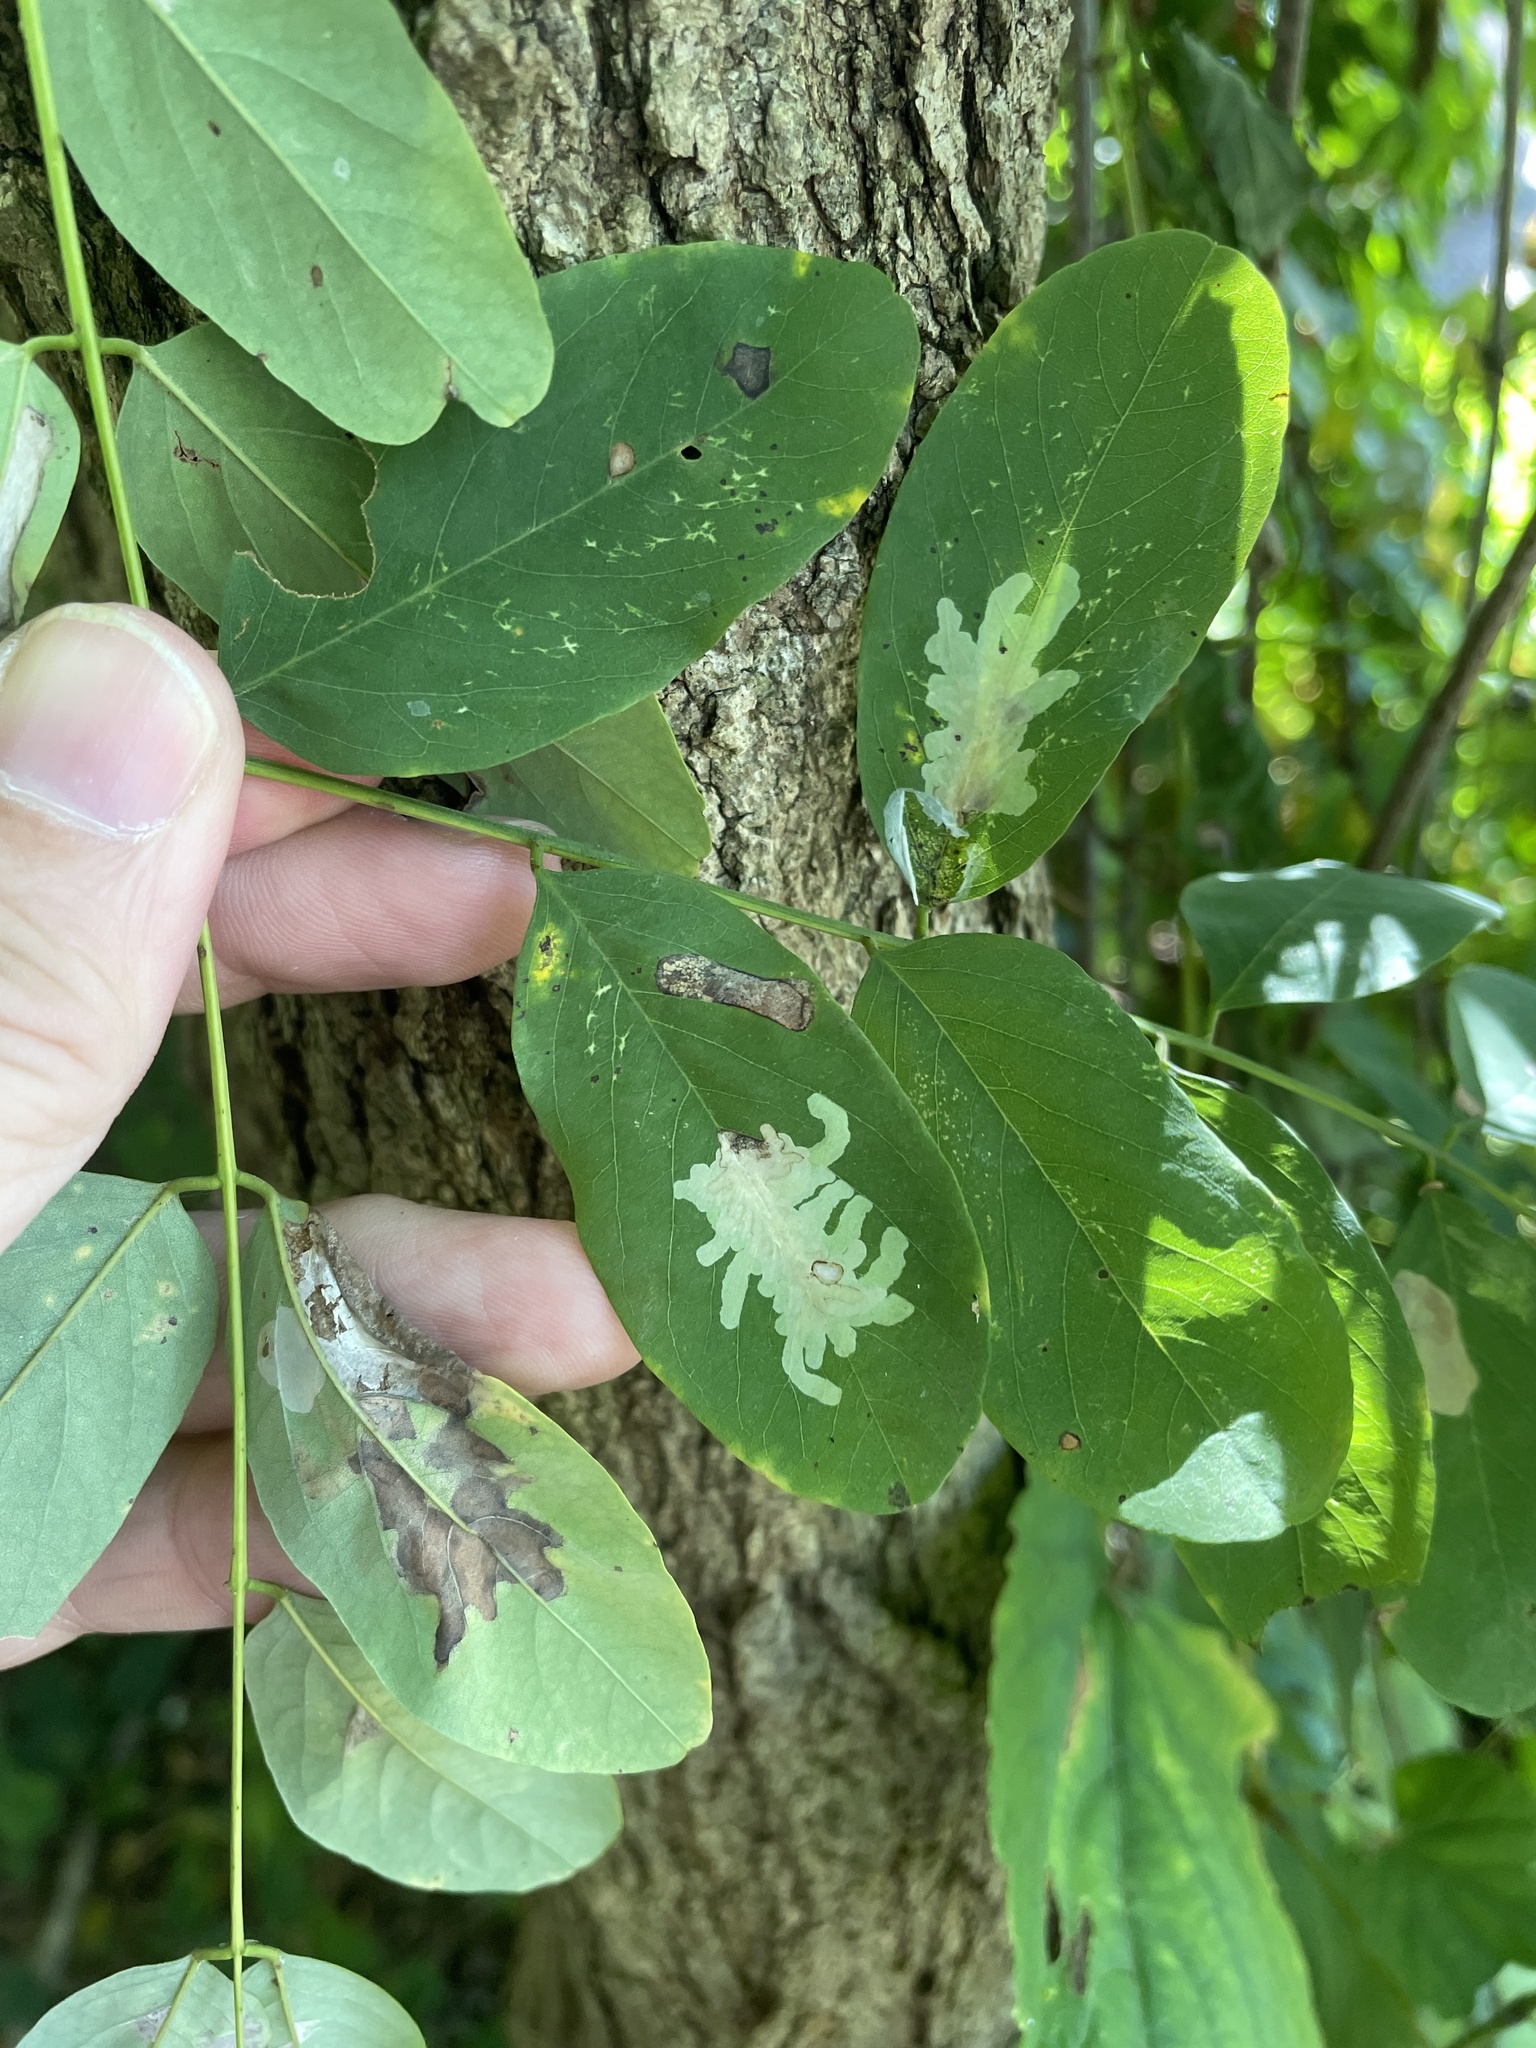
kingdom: Animalia
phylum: Arthropoda
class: Insecta
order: Lepidoptera
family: Gracillariidae
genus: Parectopa
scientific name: Parectopa robiniella
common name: Locust digitate leafminer
